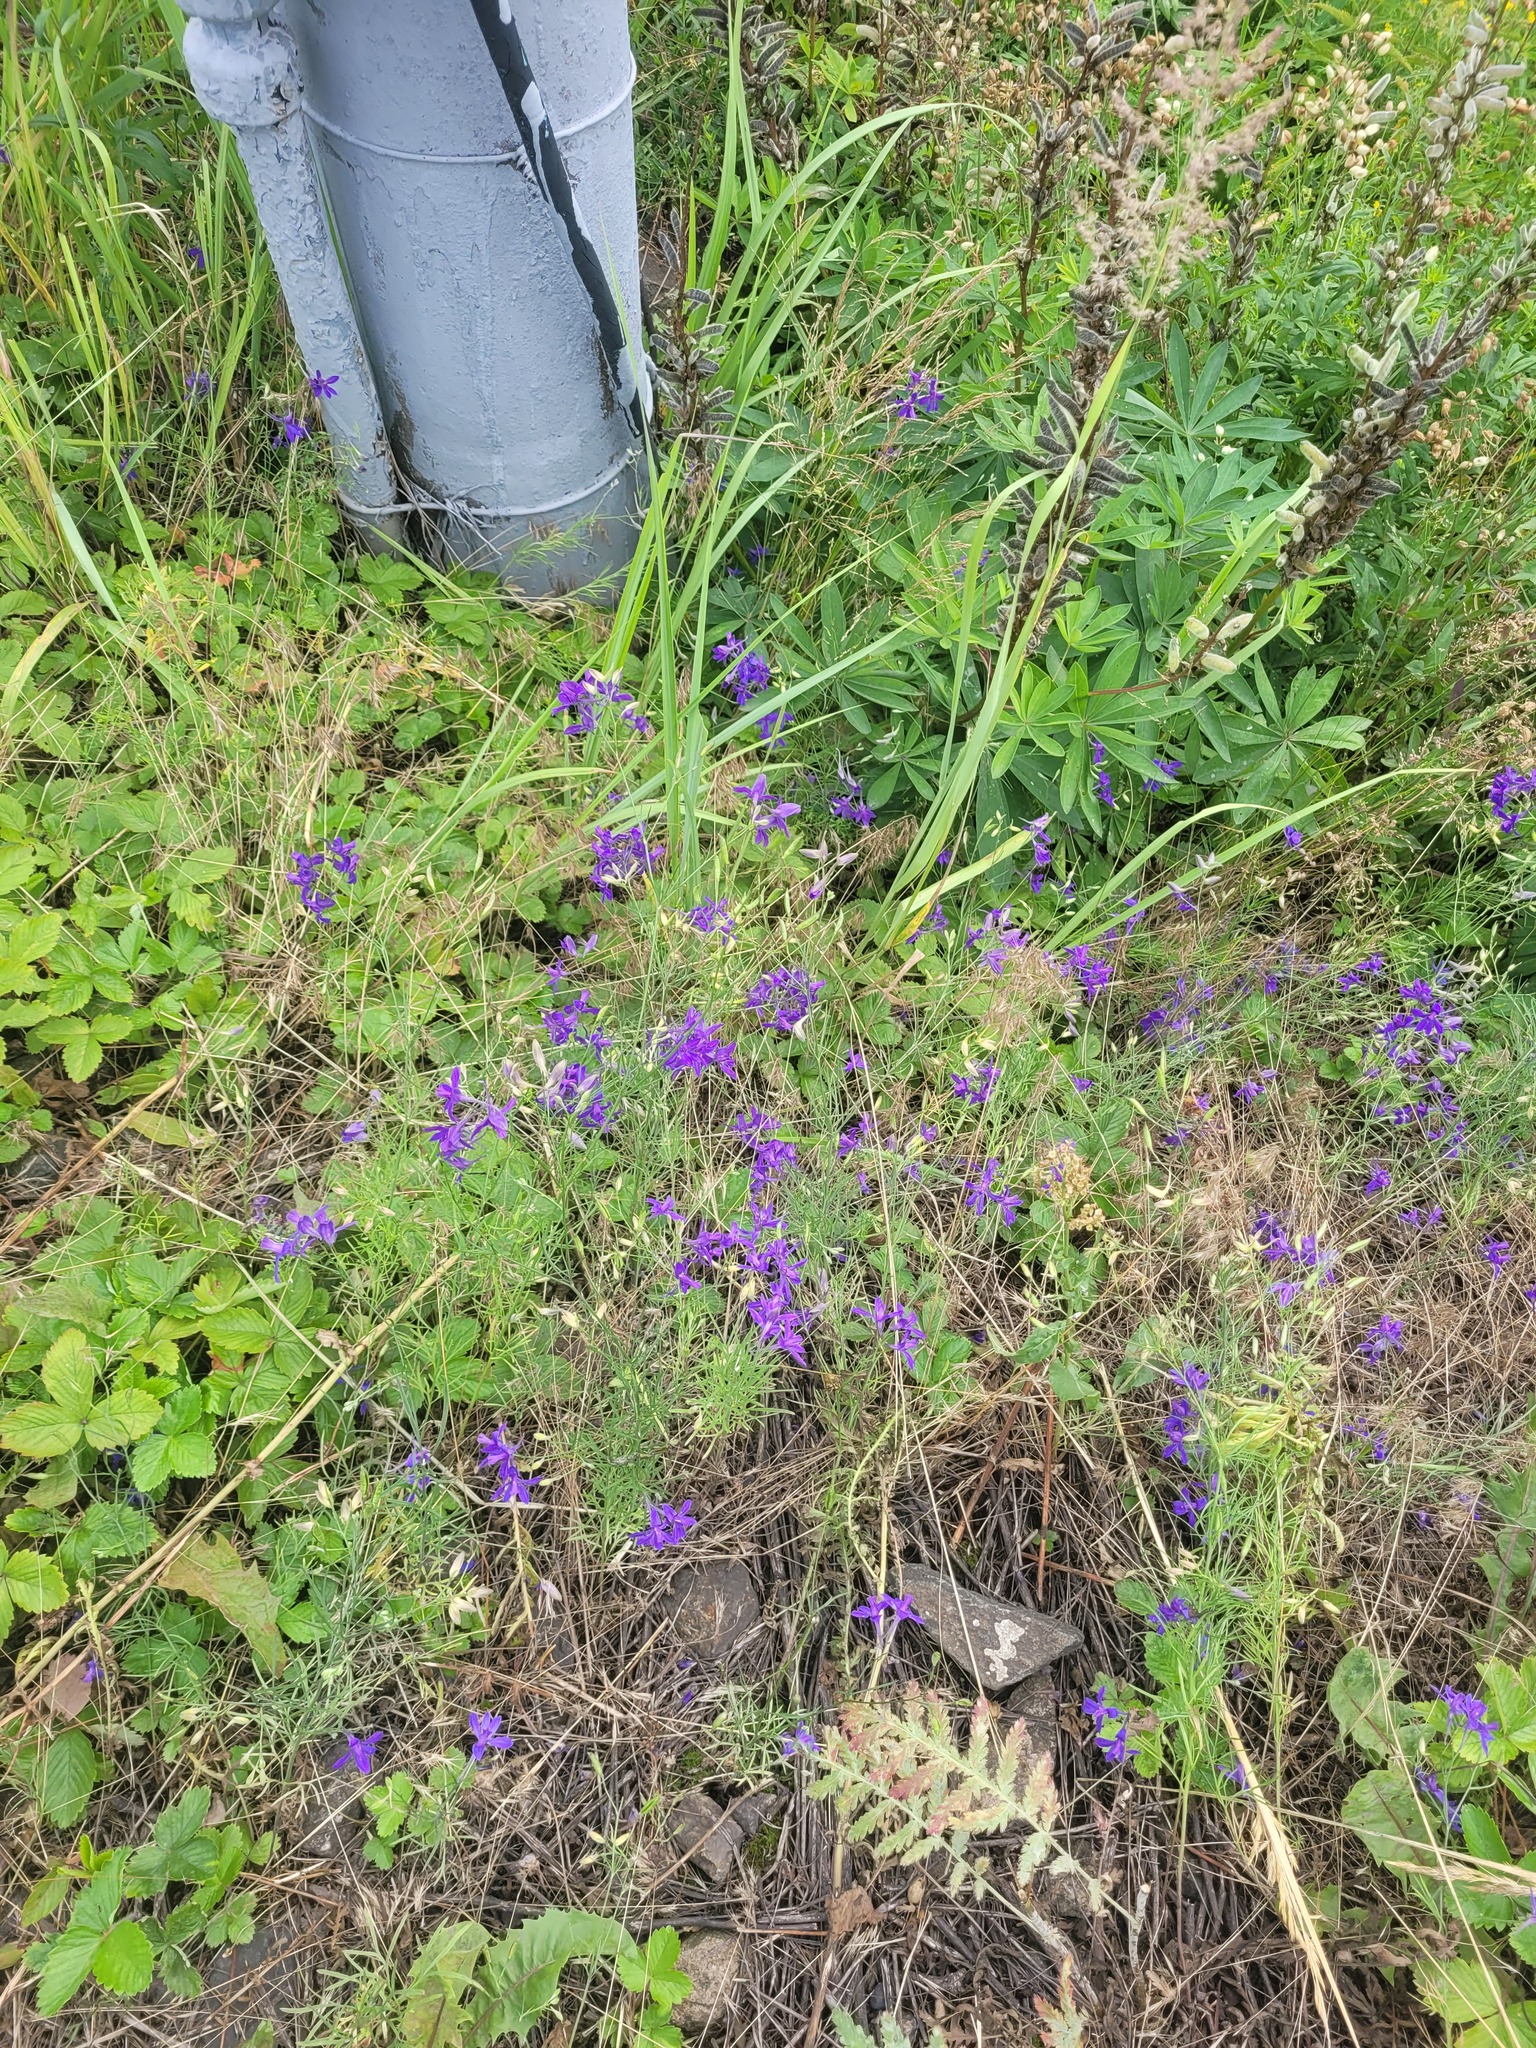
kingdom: Plantae
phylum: Tracheophyta
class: Magnoliopsida
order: Ranunculales
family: Ranunculaceae
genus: Delphinium
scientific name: Delphinium consolida
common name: Branching larkspur
